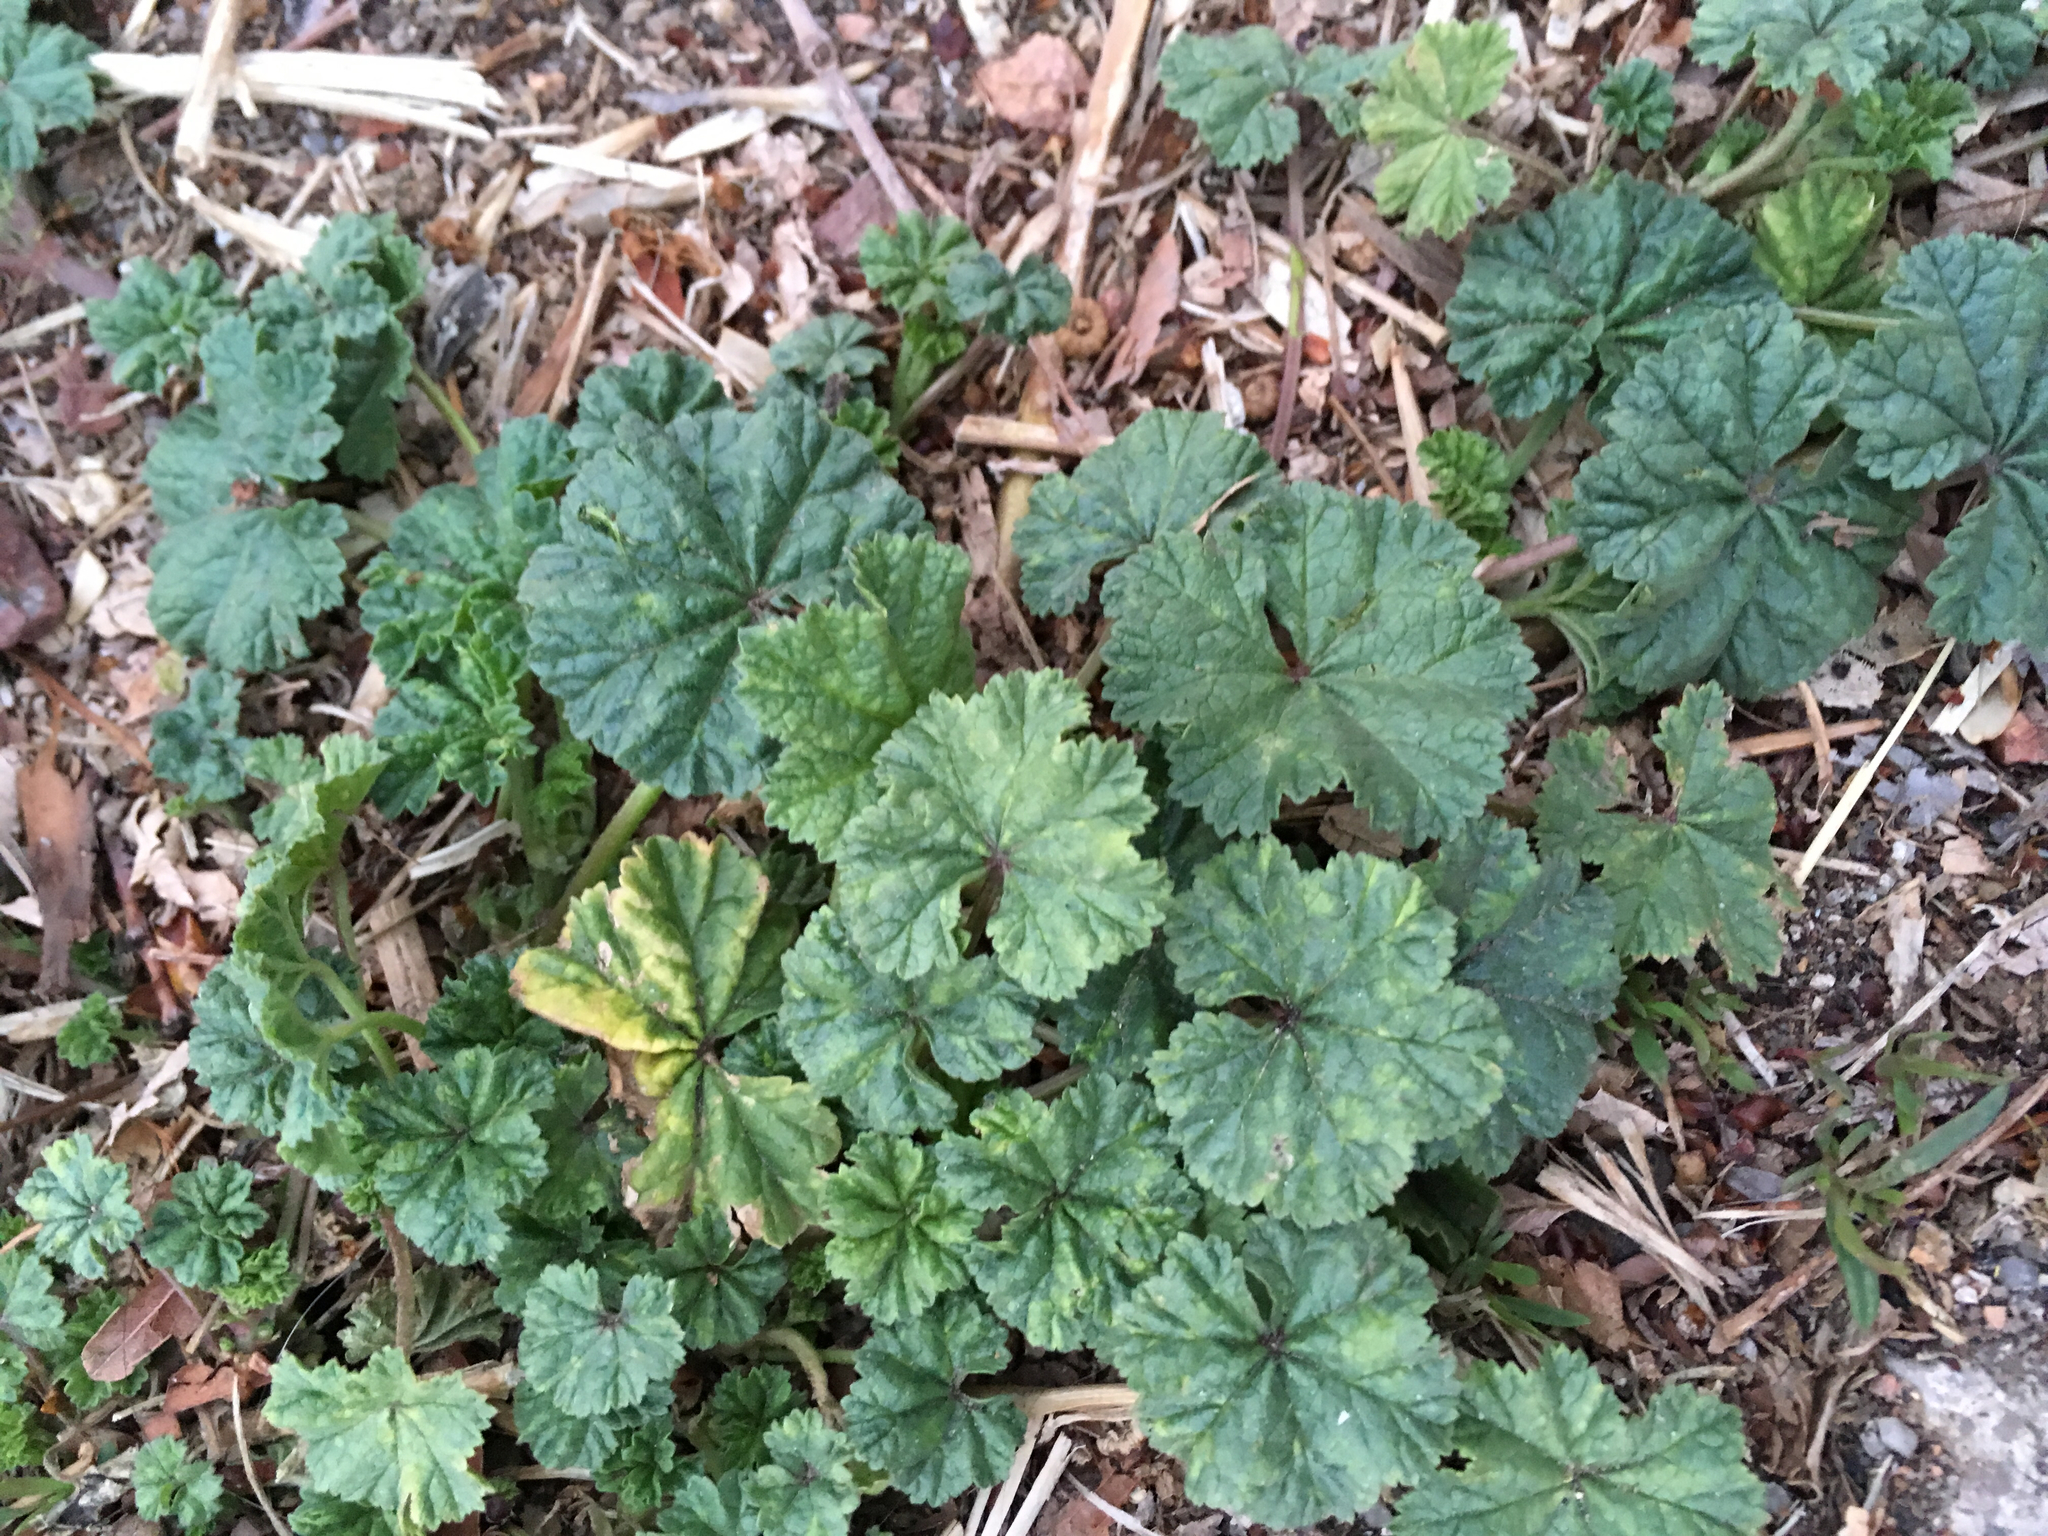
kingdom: Plantae
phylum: Tracheophyta
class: Magnoliopsida
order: Malvales
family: Malvaceae
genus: Malva
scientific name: Malva neglecta
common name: Common mallow
